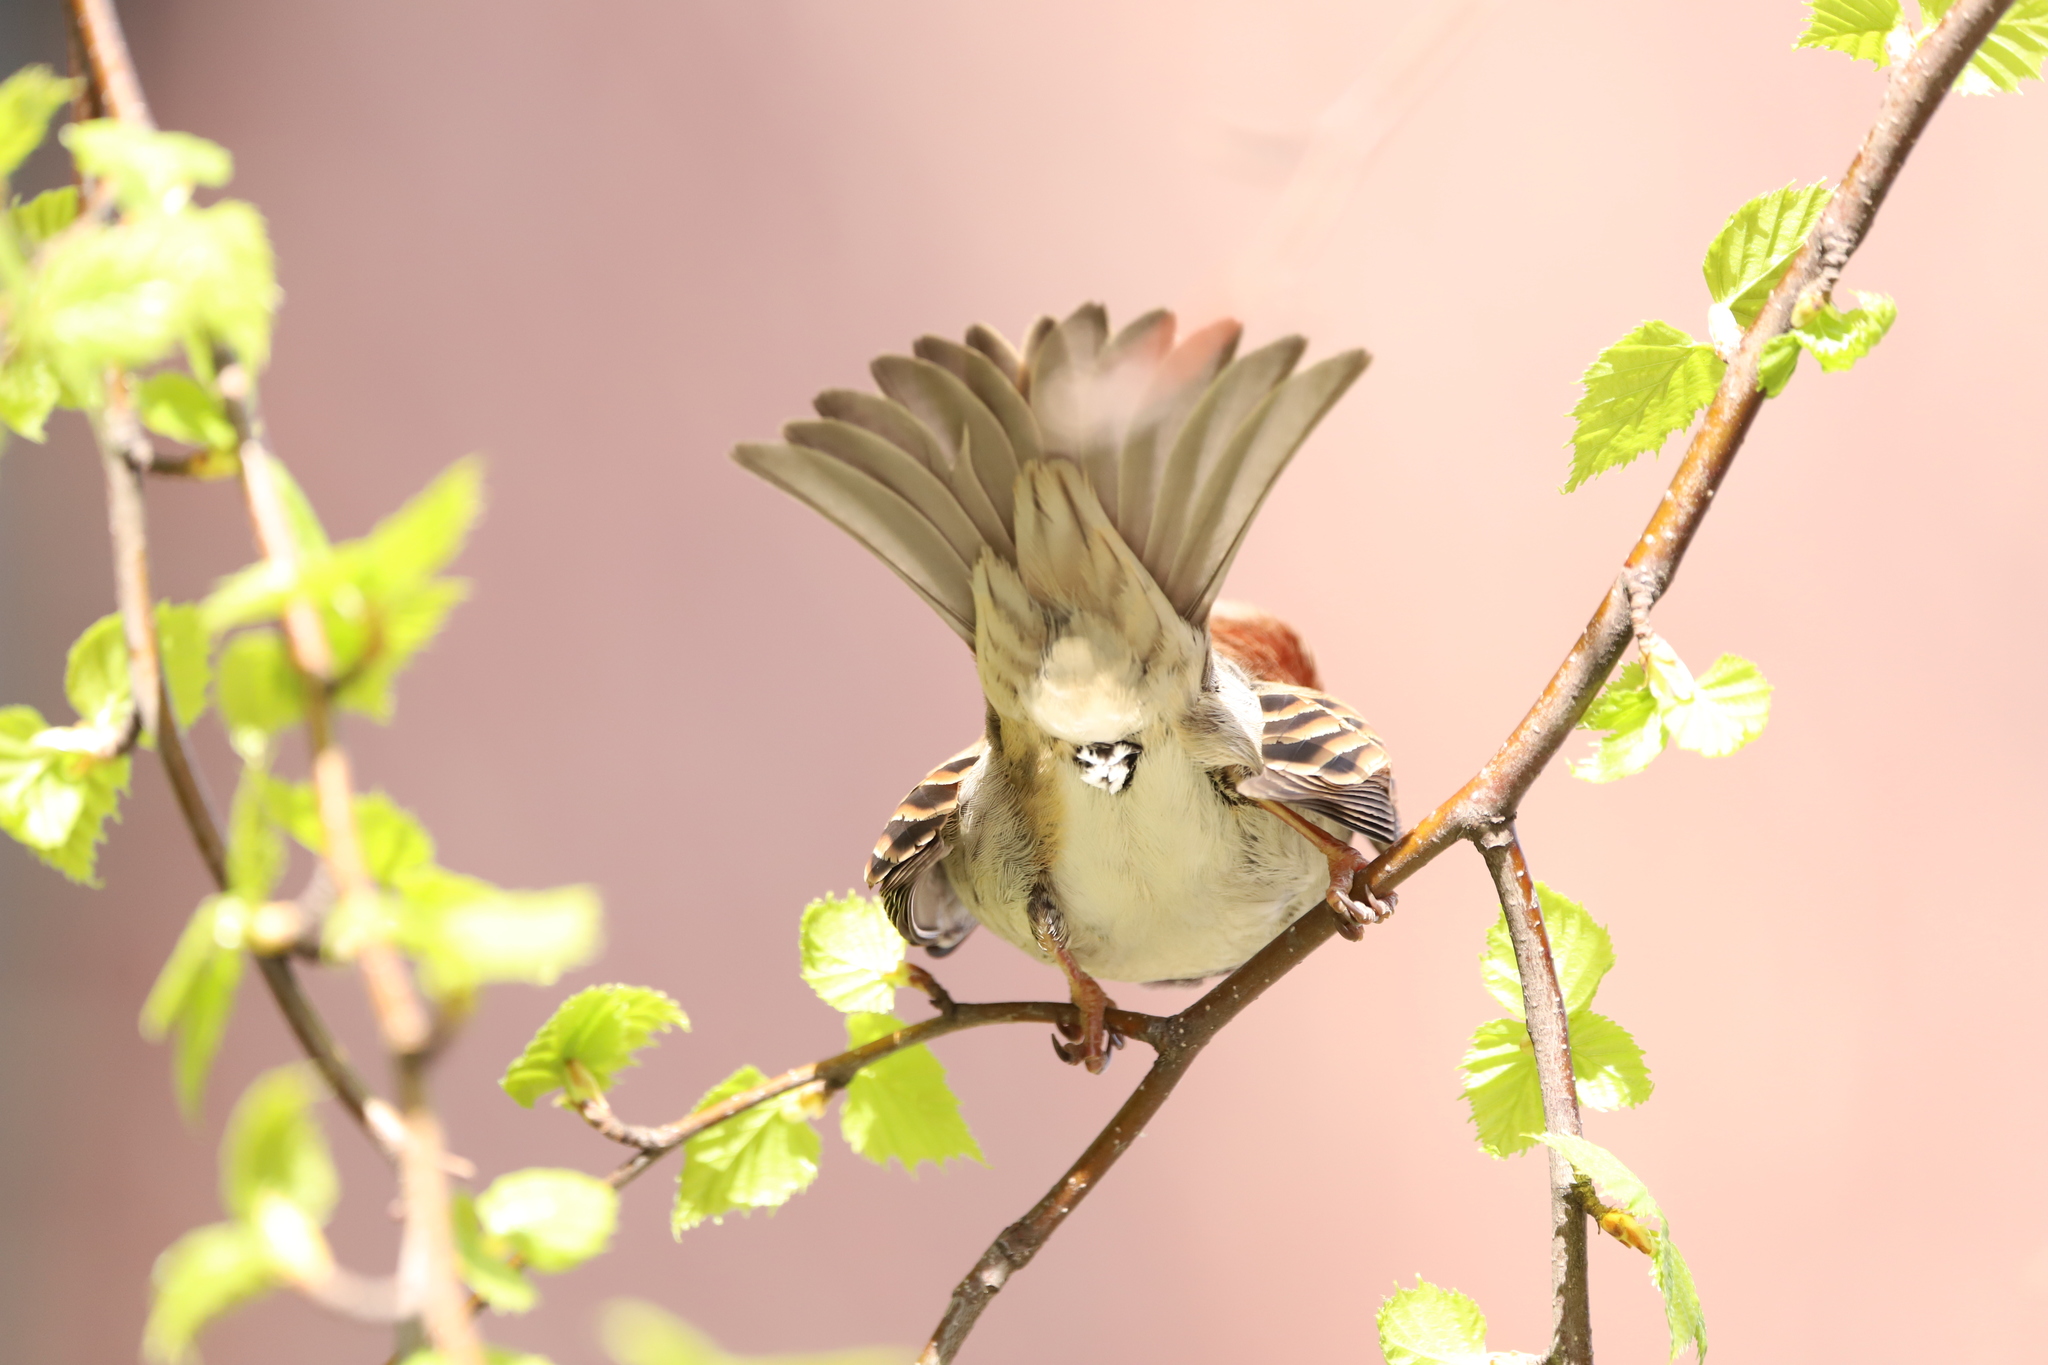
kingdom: Animalia
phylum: Chordata
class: Aves
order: Passeriformes
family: Passeridae
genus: Passer
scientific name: Passer domesticus
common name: House sparrow
